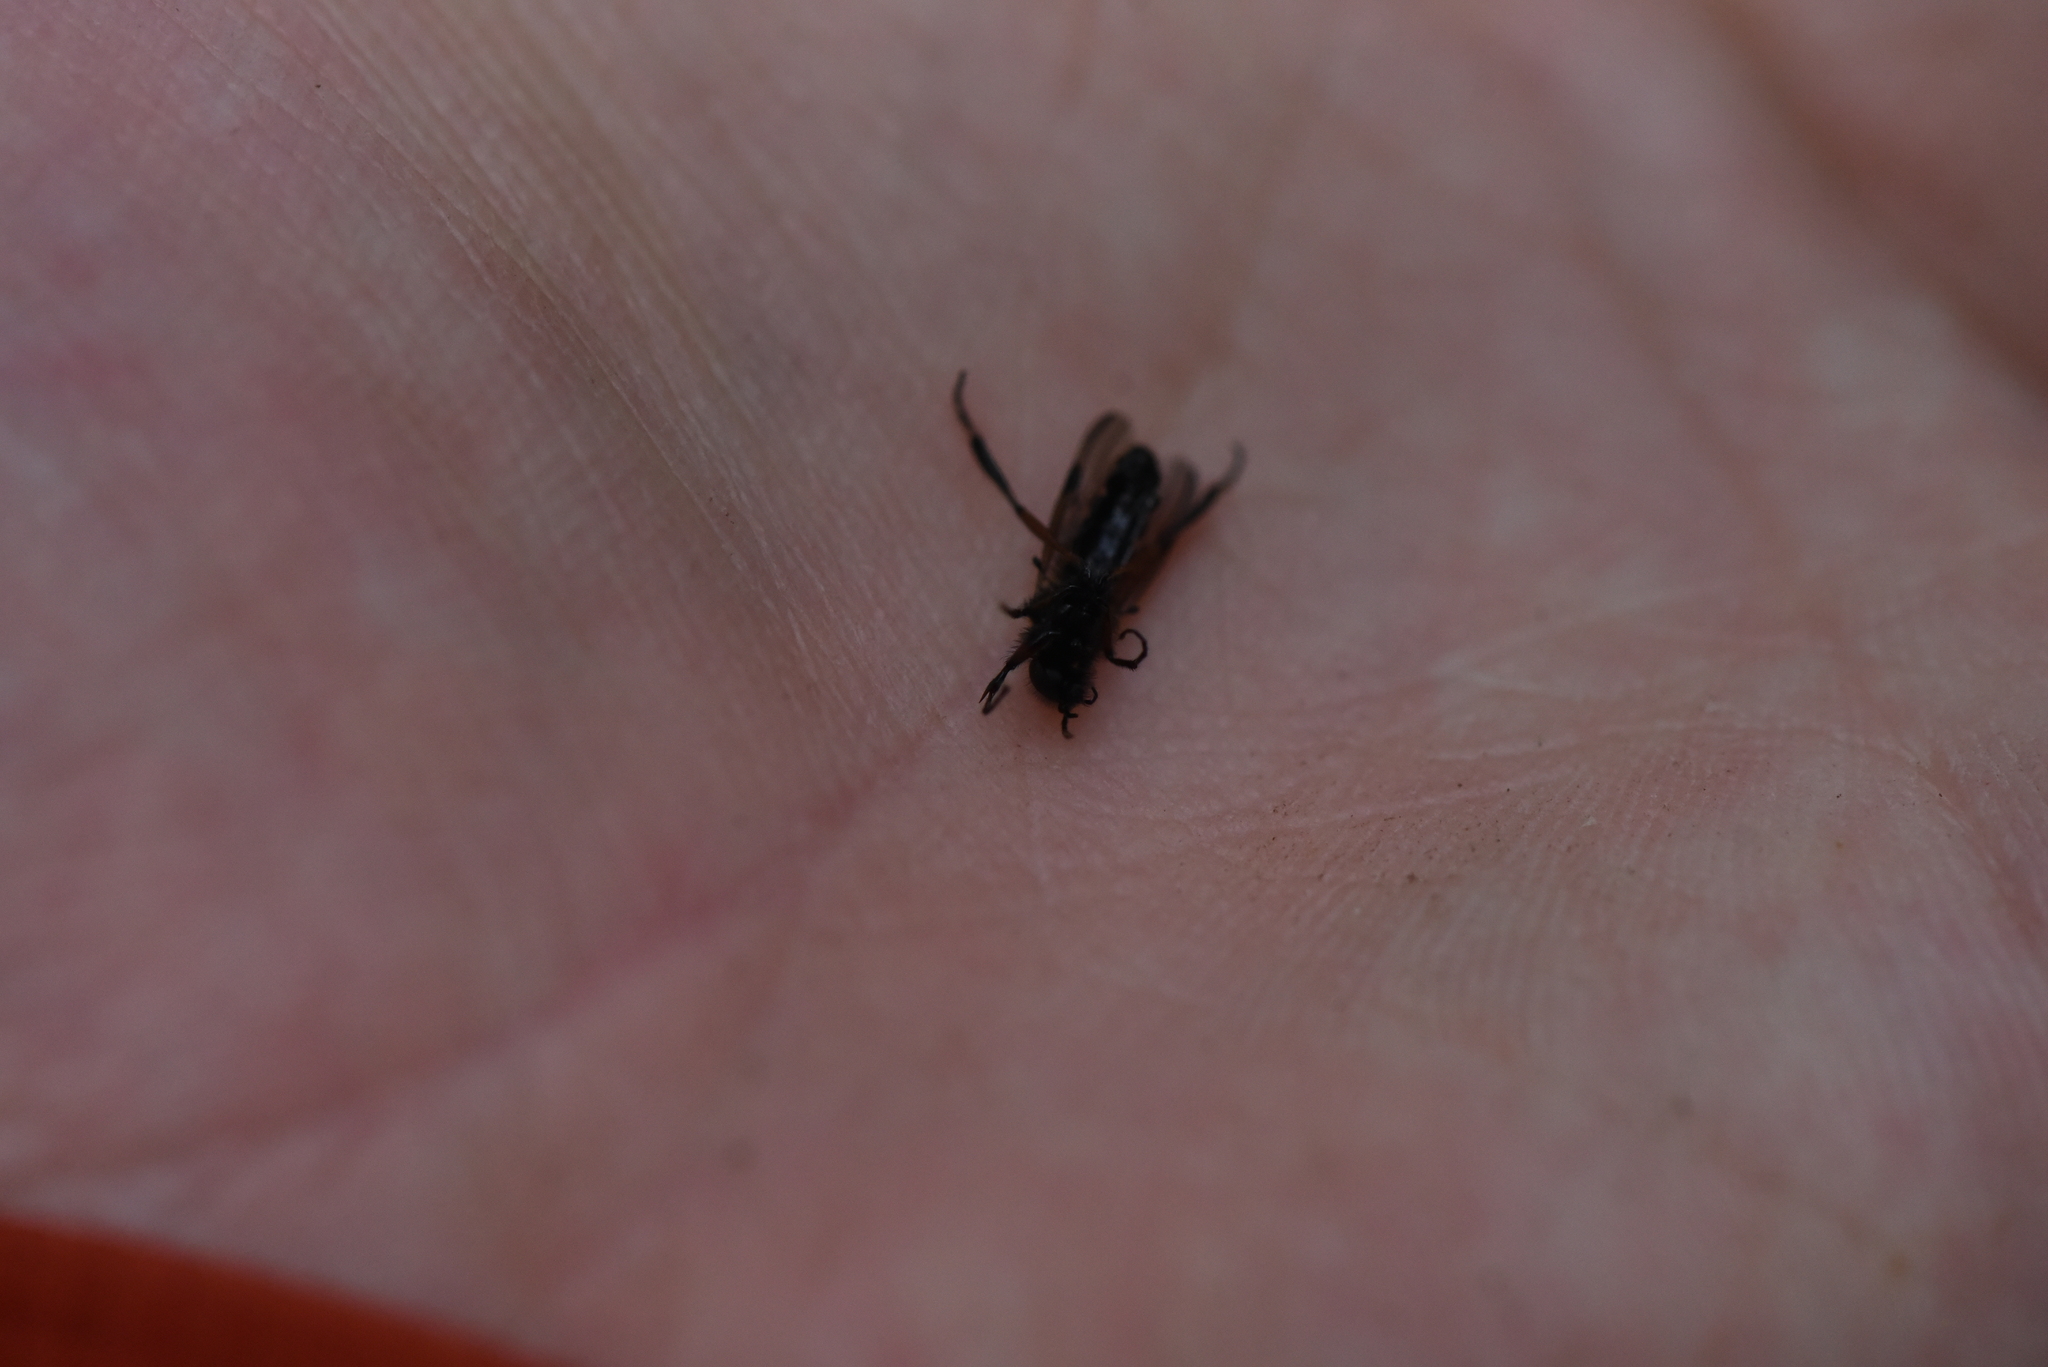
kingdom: Animalia
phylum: Arthropoda
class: Insecta
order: Diptera
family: Bibionidae
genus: Bibio
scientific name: Bibio xanthopus
